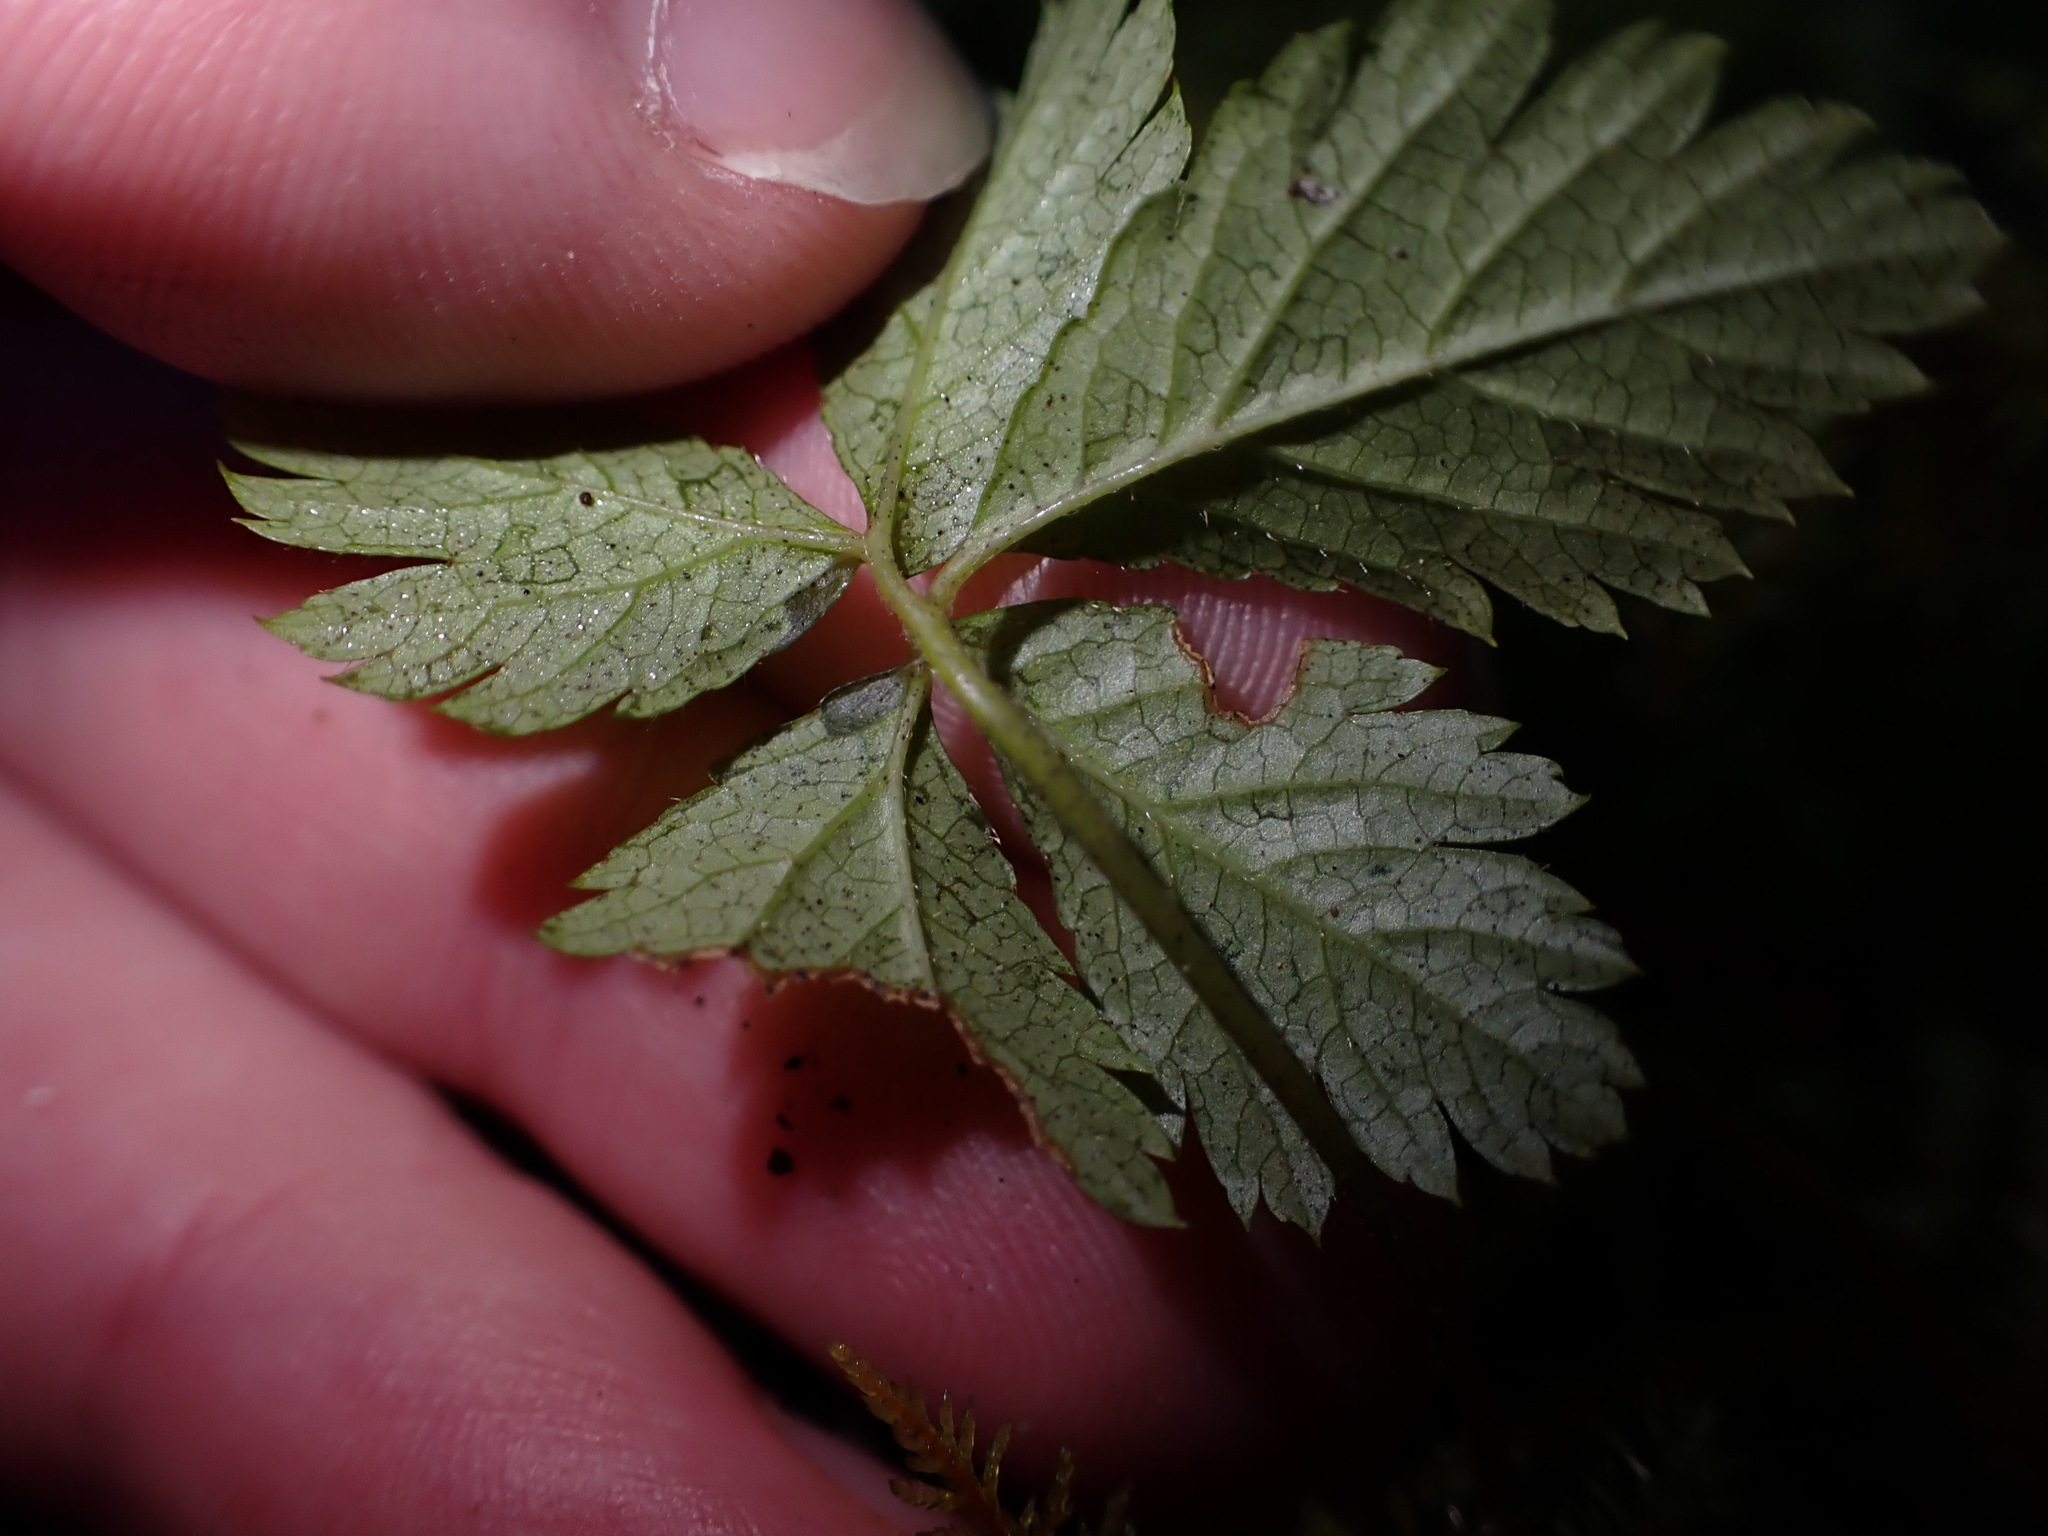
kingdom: Plantae
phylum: Tracheophyta
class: Magnoliopsida
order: Rosales
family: Rosaceae
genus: Rubus
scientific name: Rubus pedatus
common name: Creeping raspberry
